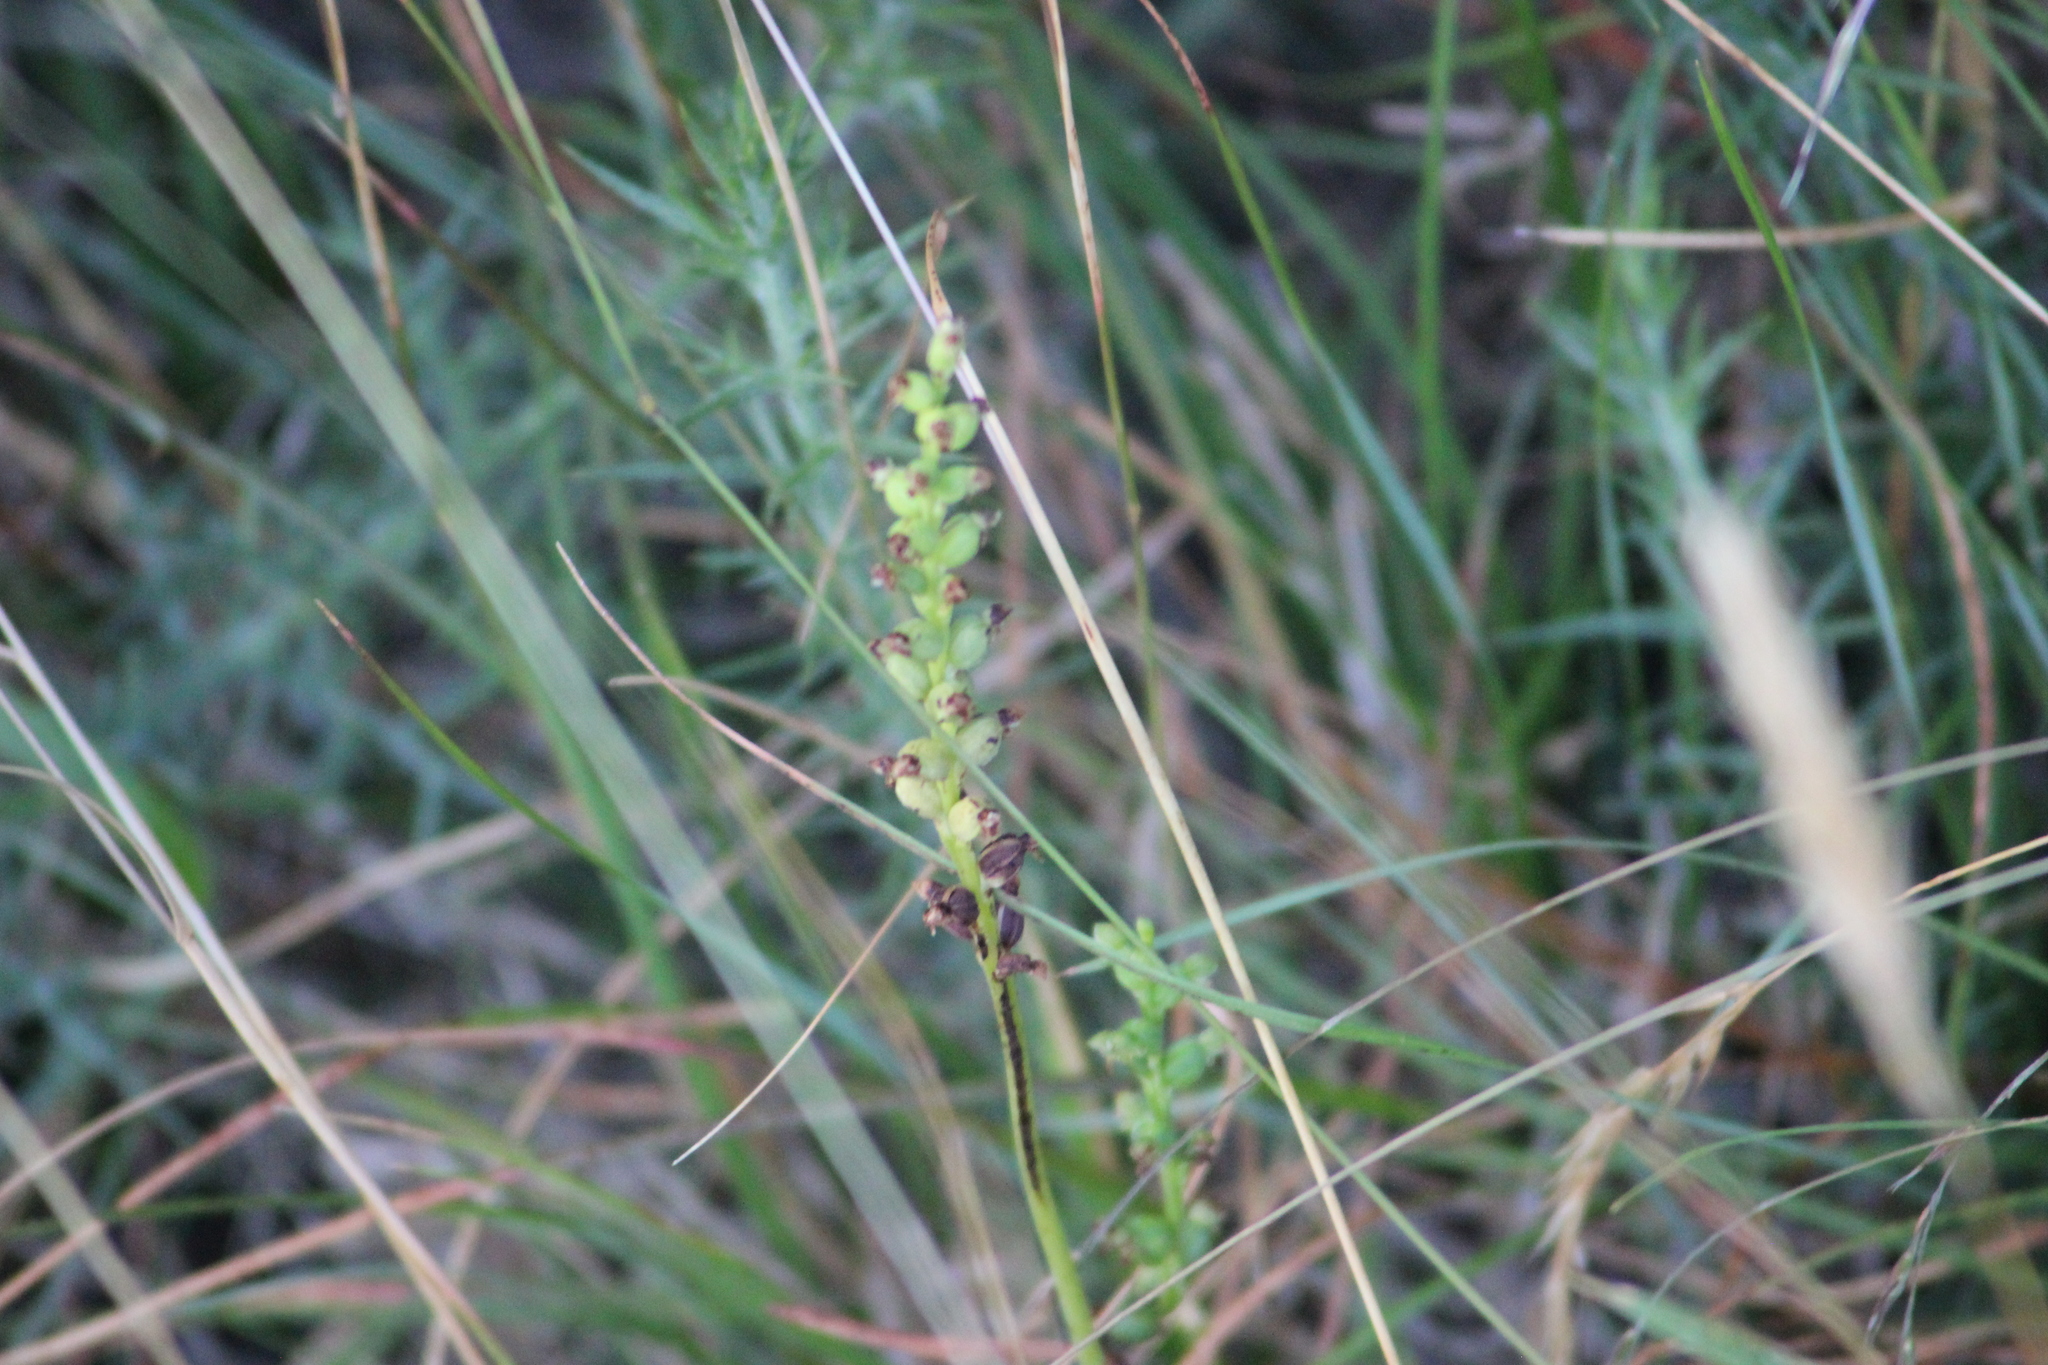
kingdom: Plantae
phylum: Tracheophyta
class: Liliopsida
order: Asparagales
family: Orchidaceae
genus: Microtis
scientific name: Microtis unifolia
